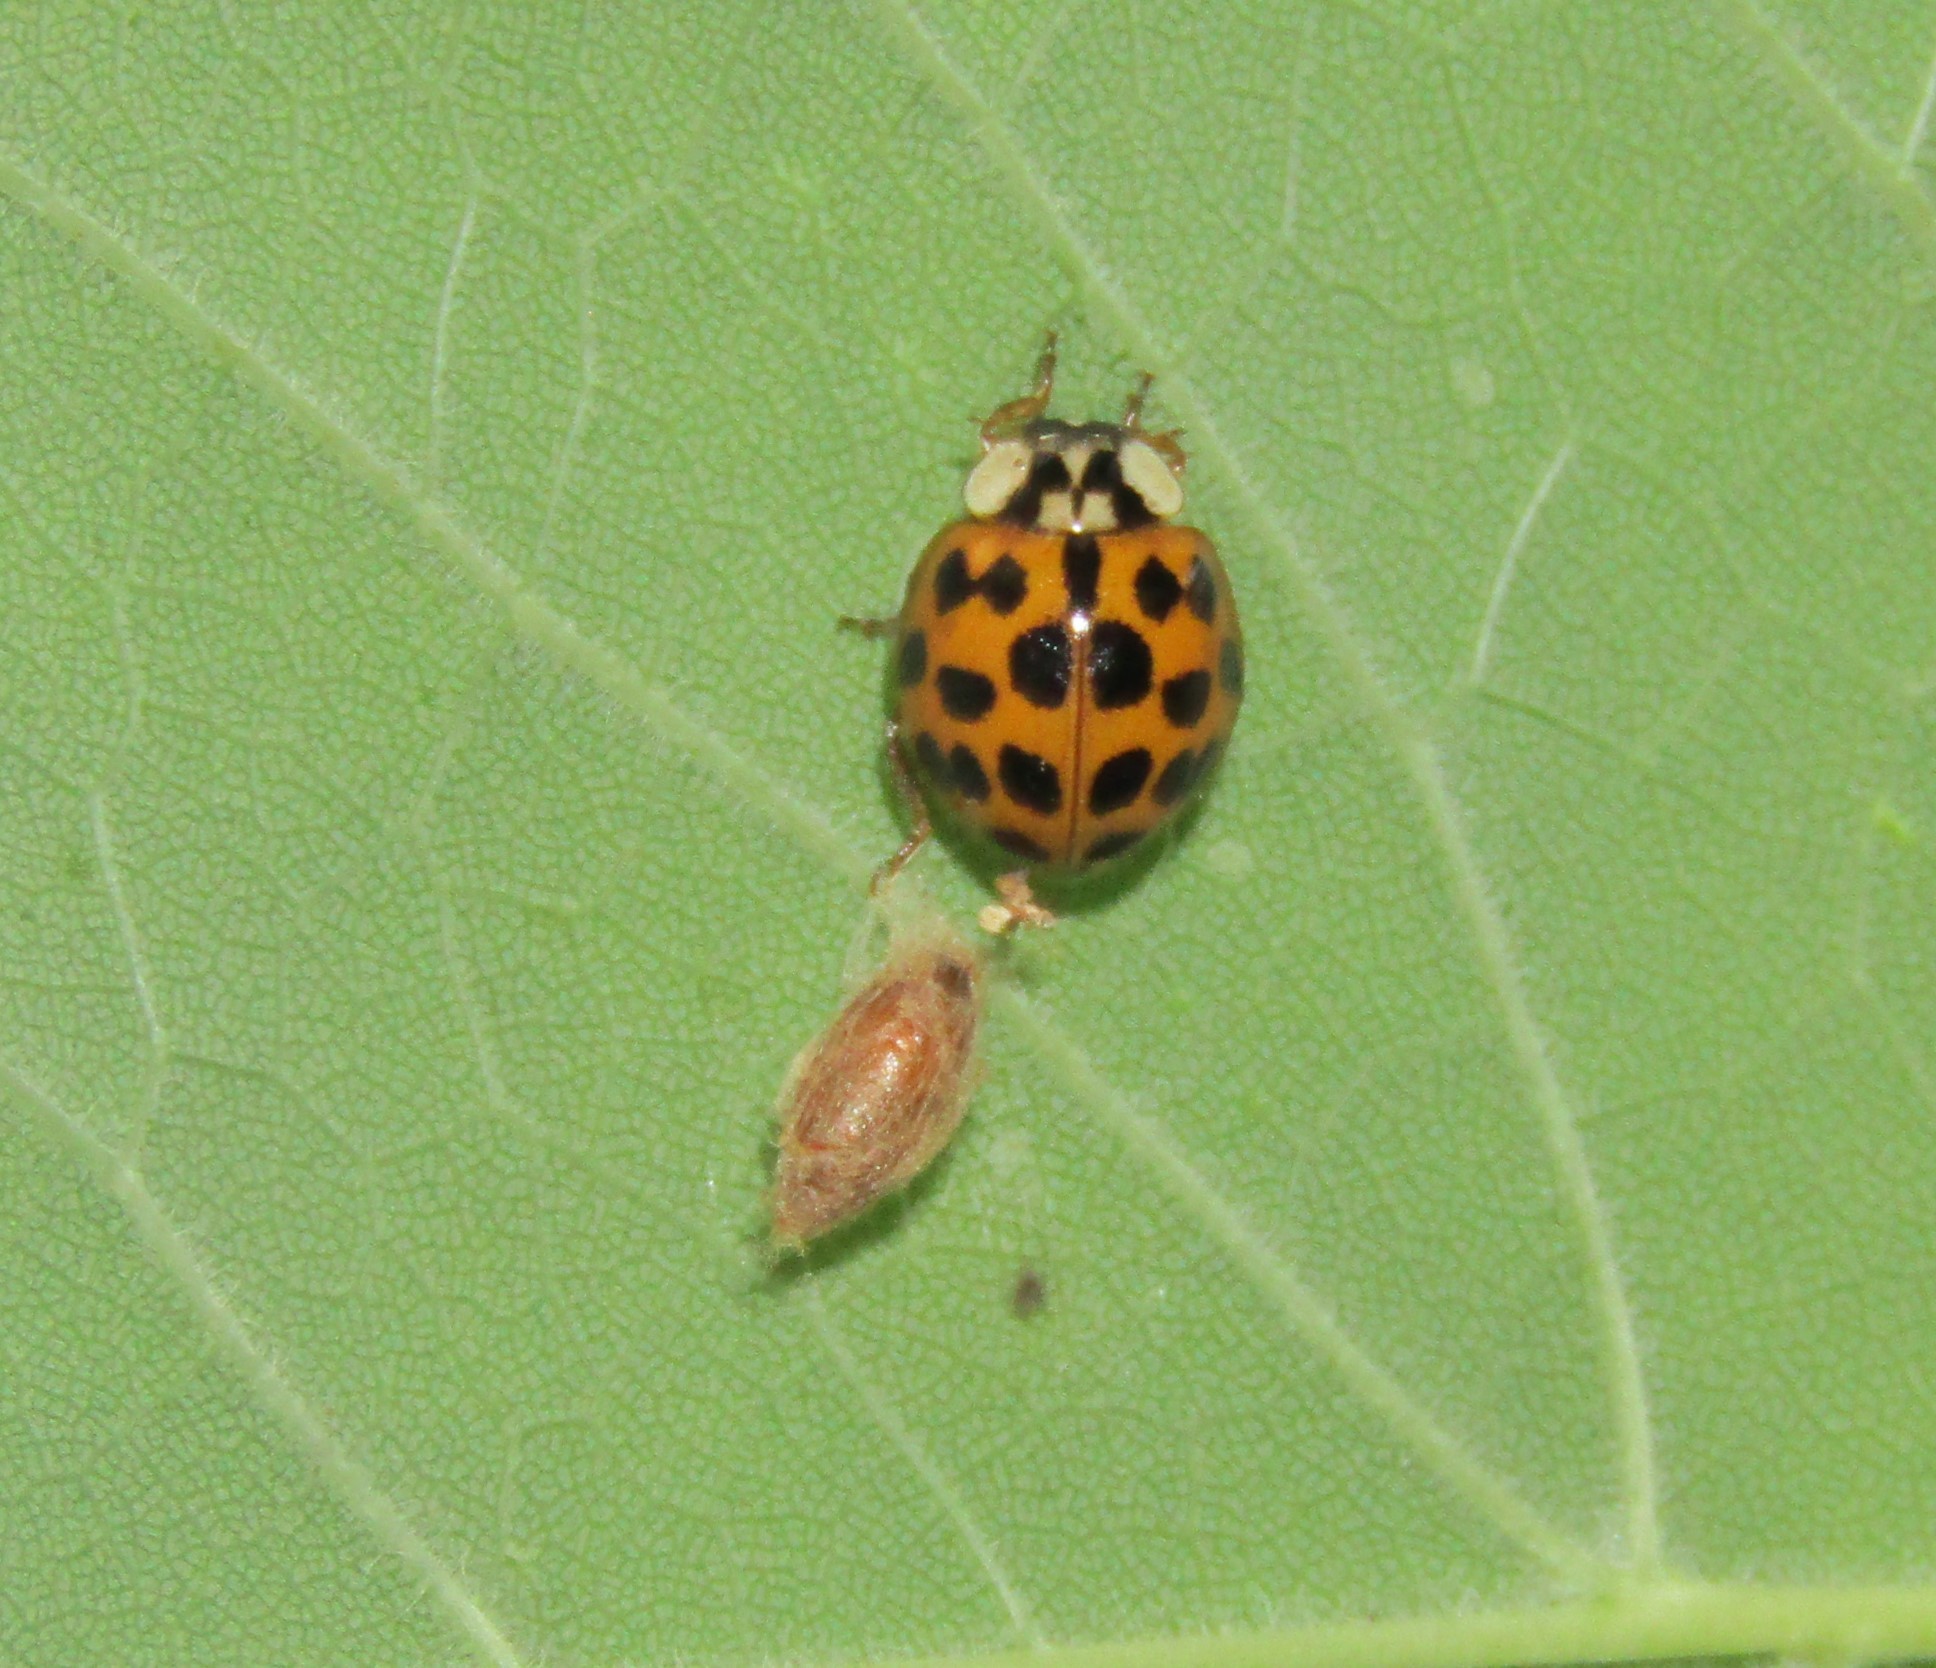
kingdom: Animalia
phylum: Arthropoda
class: Insecta
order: Hymenoptera
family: Braconidae
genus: Dinocampus
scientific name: Dinocampus coccinellae
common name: Braconid wasp
